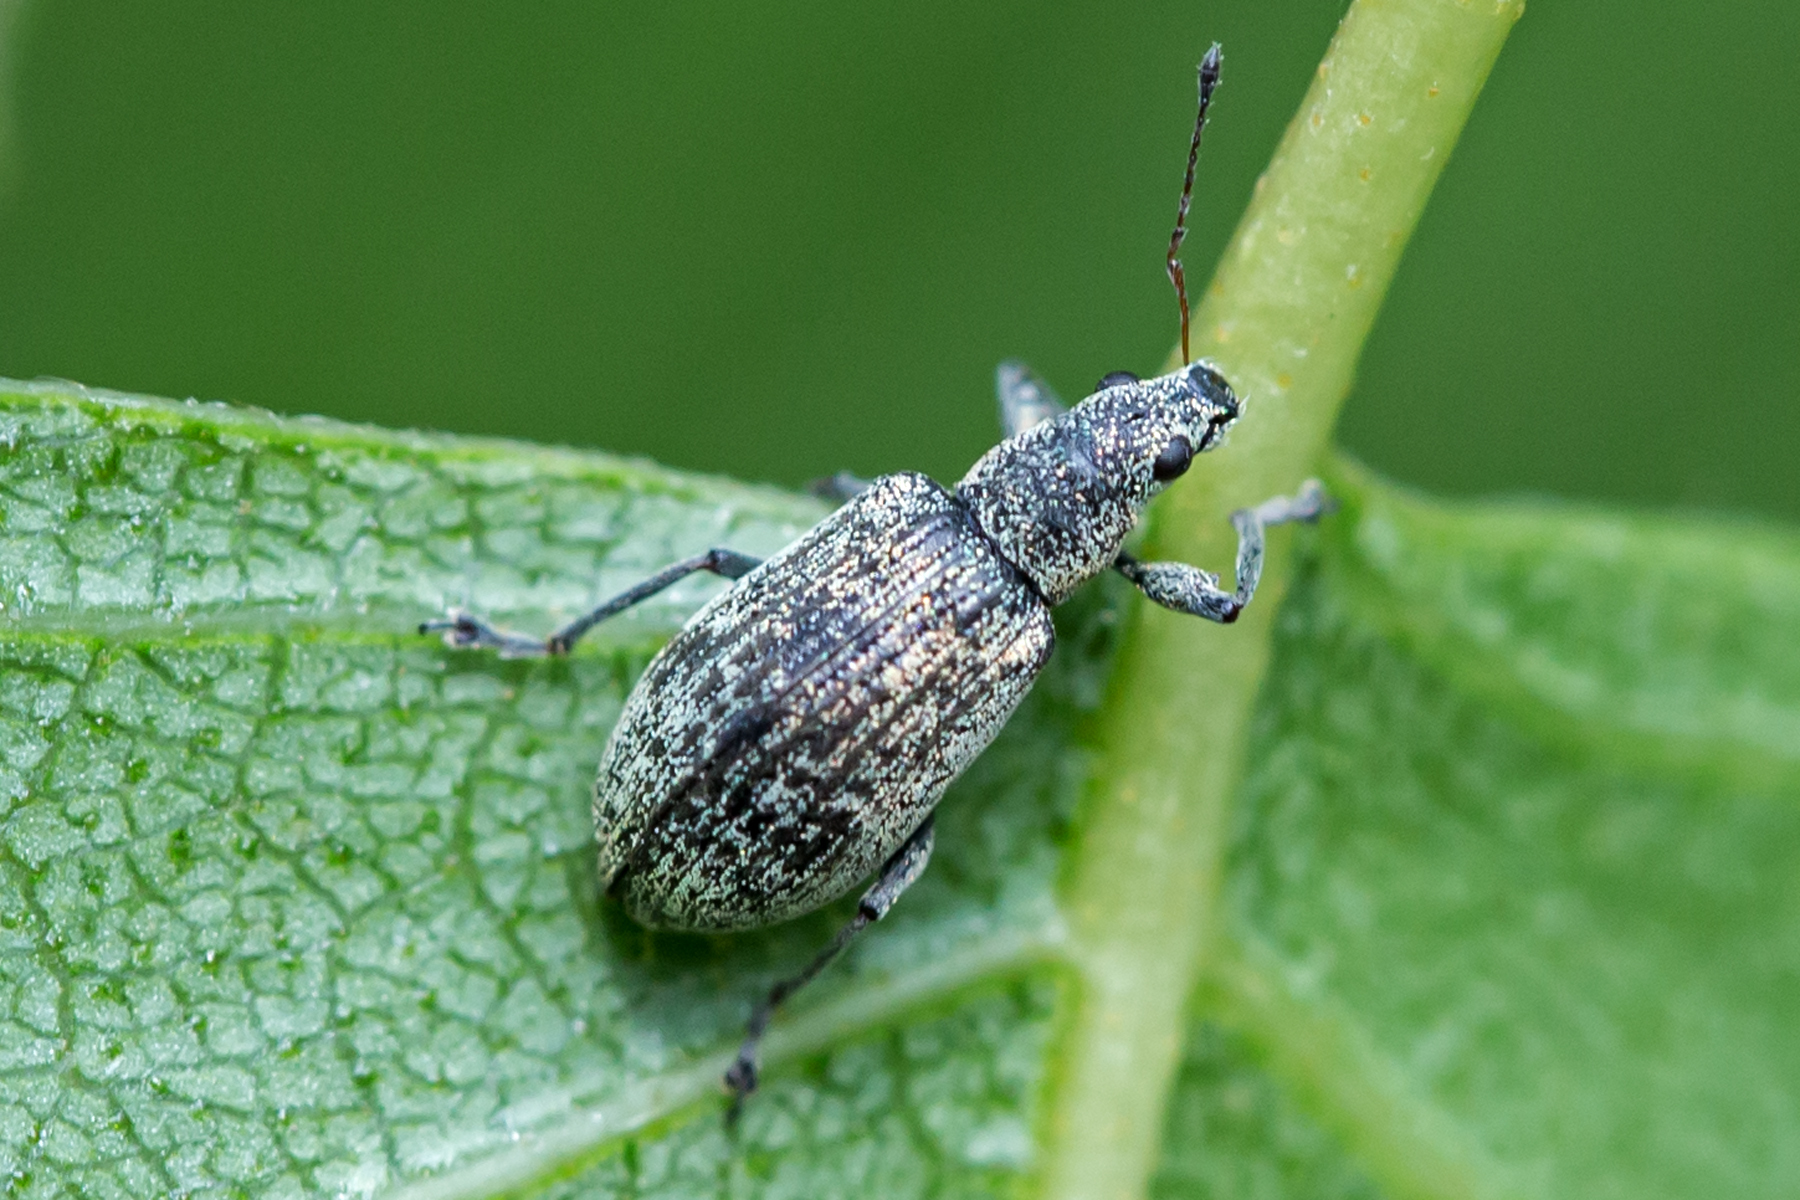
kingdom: Animalia
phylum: Arthropoda
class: Insecta
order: Coleoptera
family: Curculionidae
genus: Polydrusus
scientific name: Polydrusus cervinus
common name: Weevil
